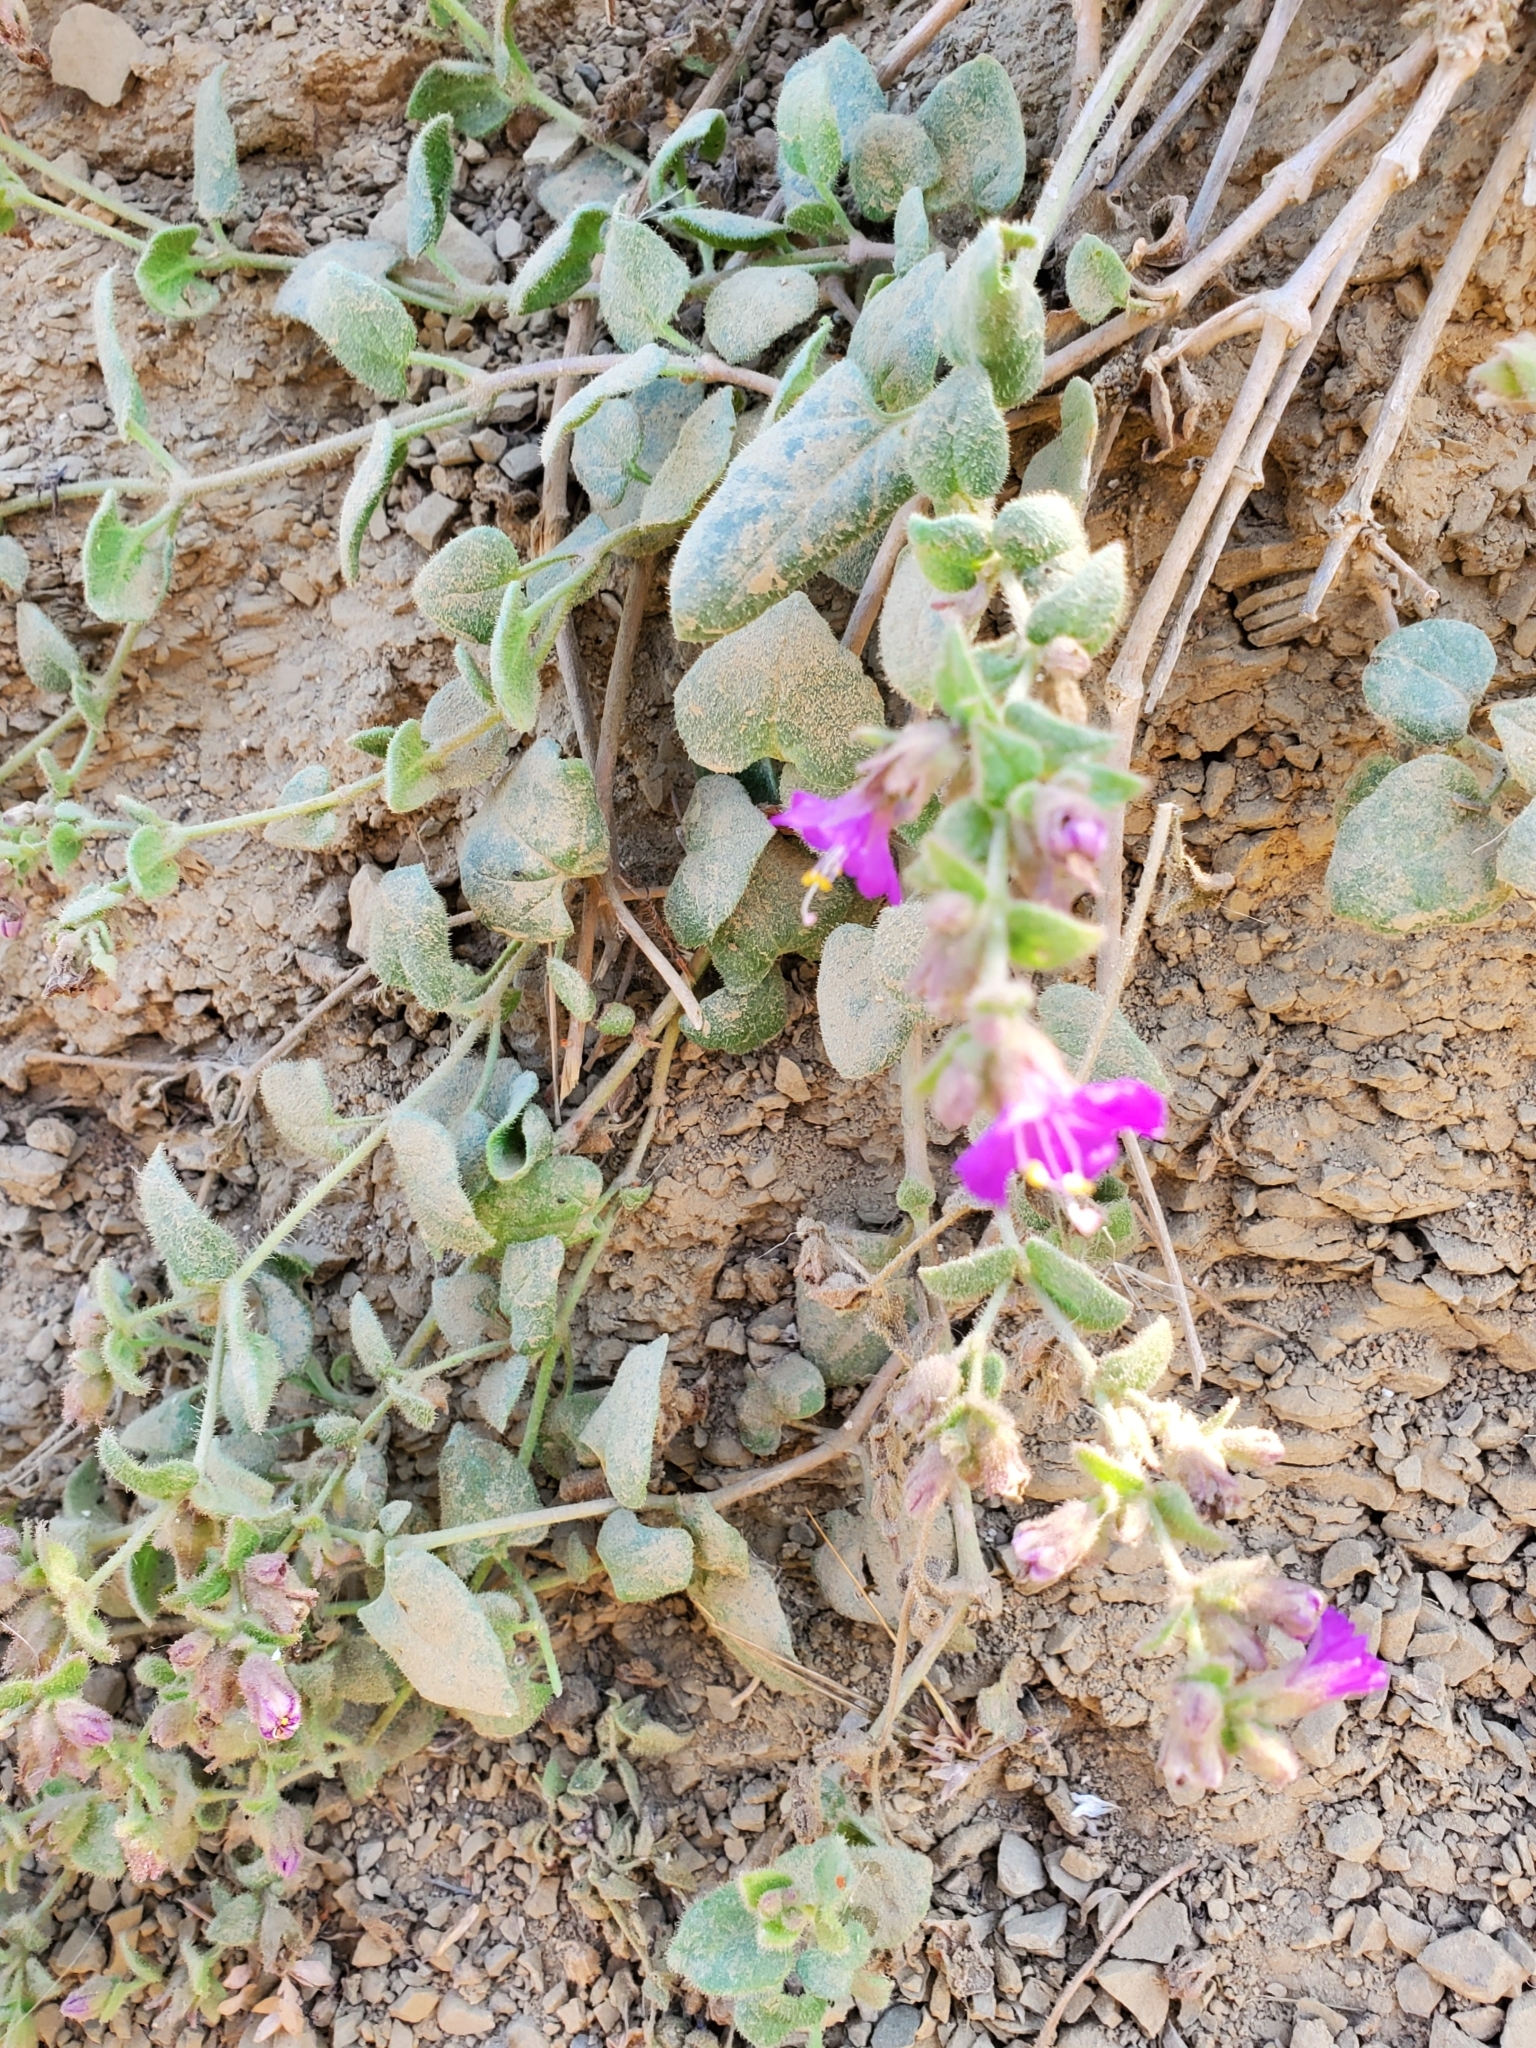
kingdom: Plantae
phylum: Tracheophyta
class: Magnoliopsida
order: Caryophyllales
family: Nyctaginaceae
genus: Mirabilis
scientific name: Mirabilis laevis
